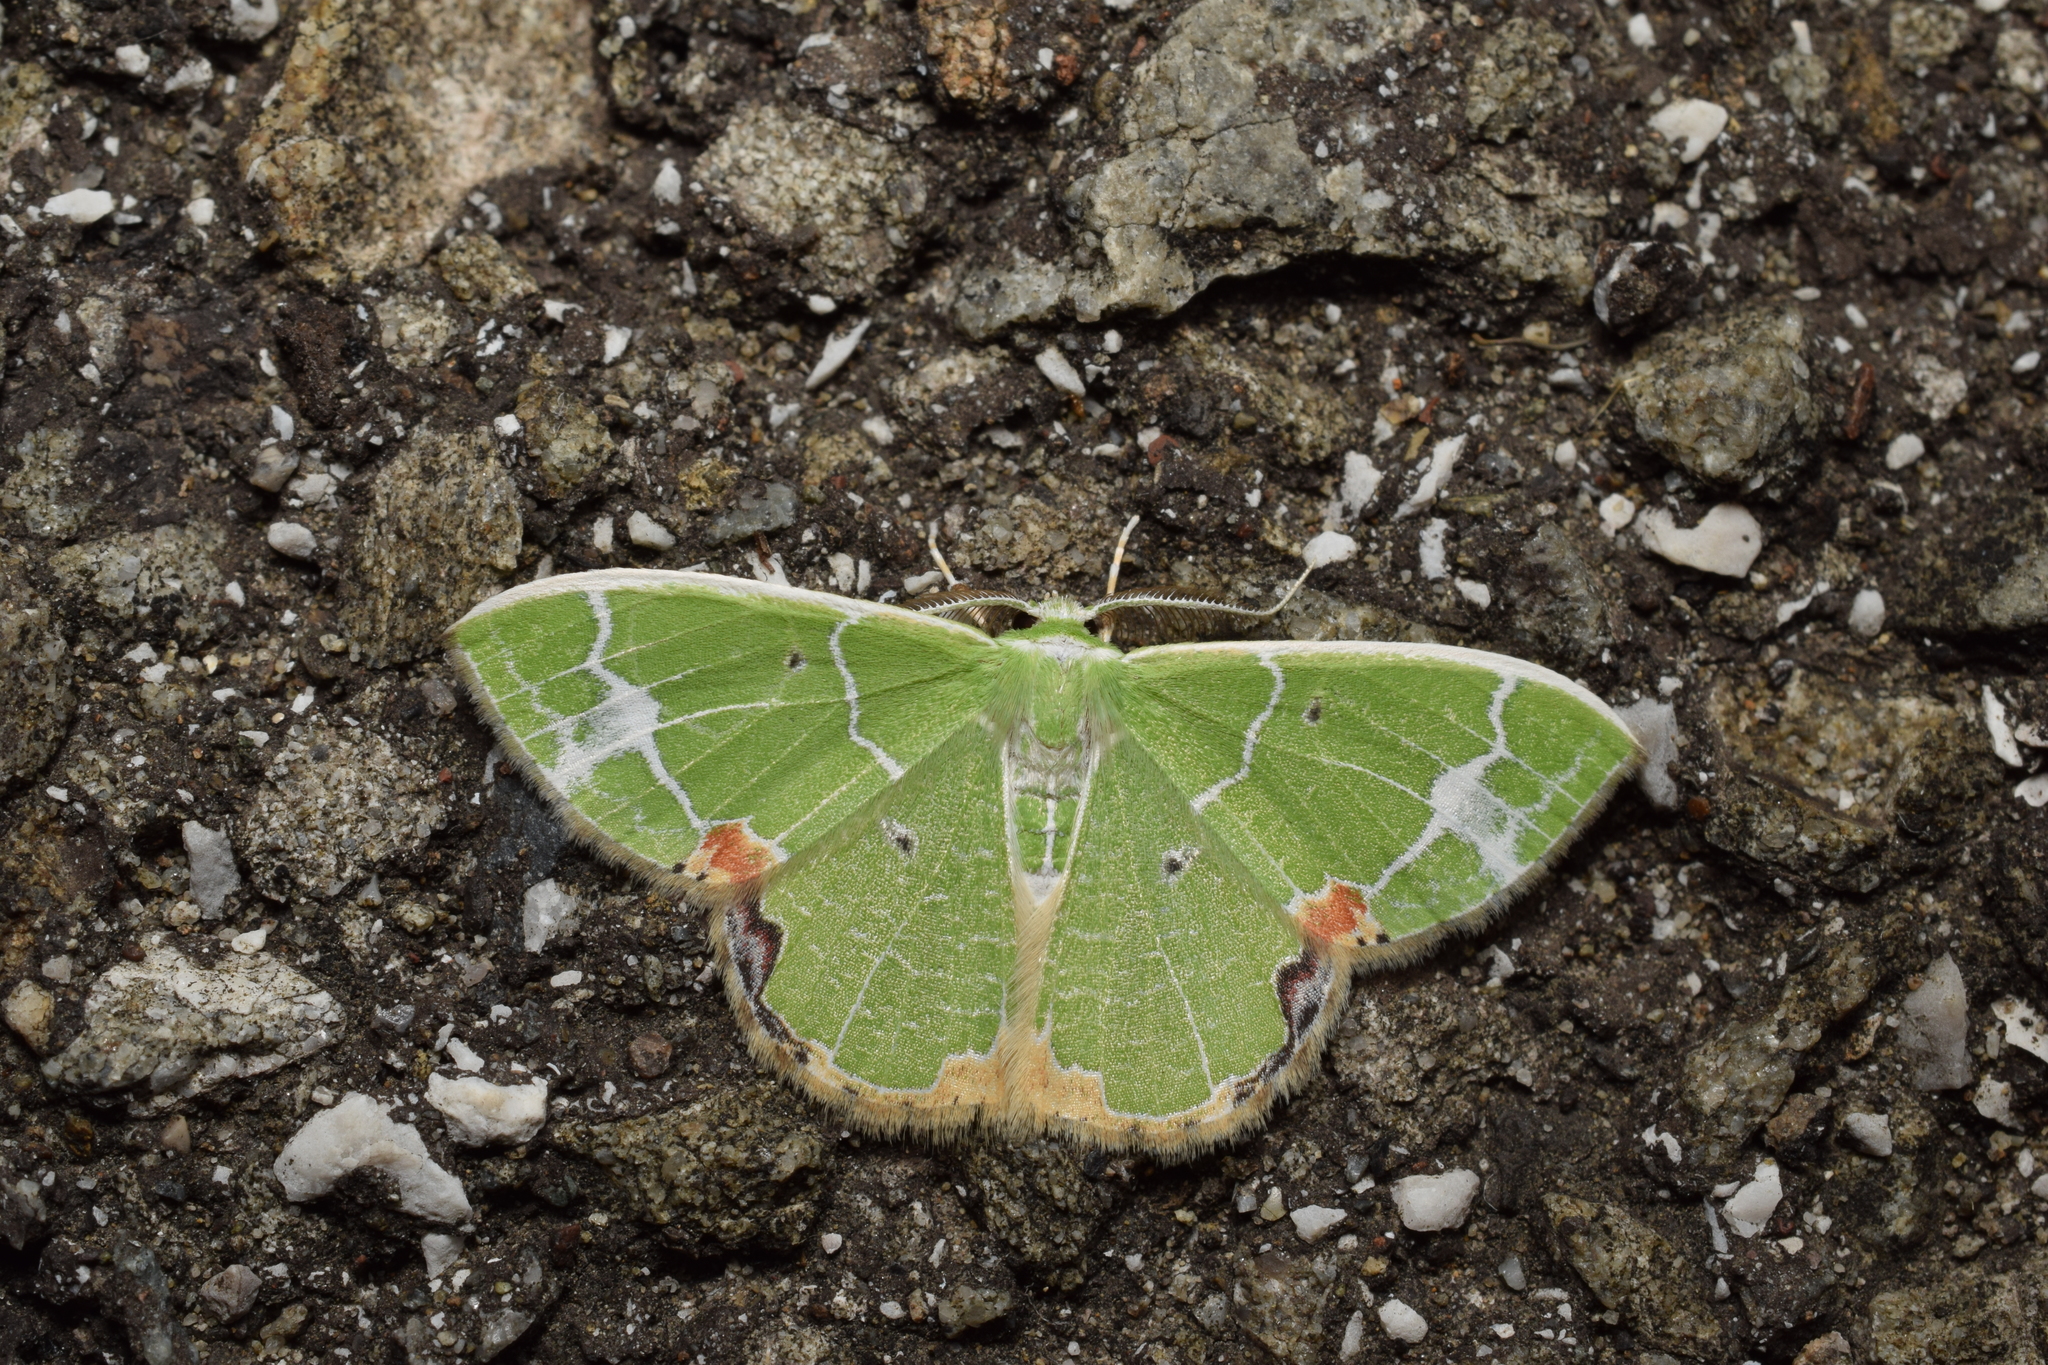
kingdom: Animalia
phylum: Arthropoda
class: Insecta
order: Lepidoptera
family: Geometridae
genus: Comibaena
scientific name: Comibaena nigromacularia
